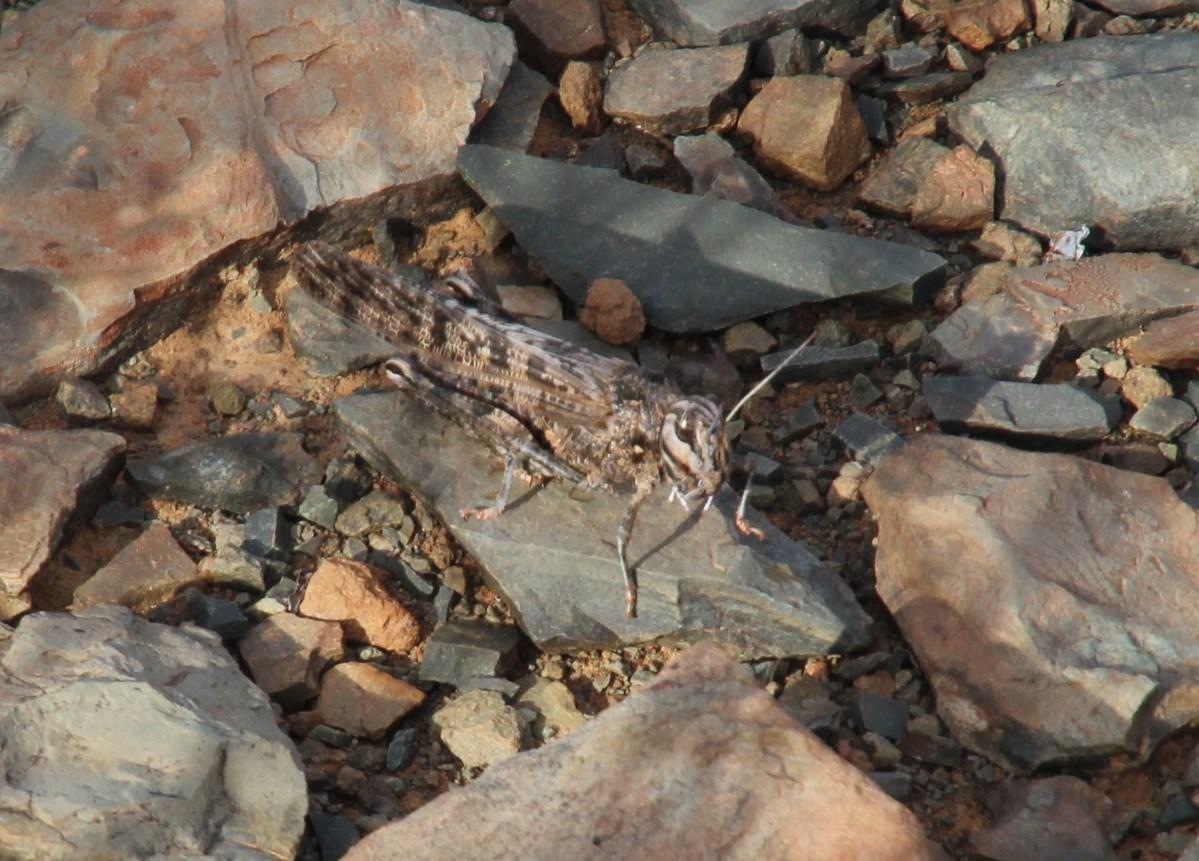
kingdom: Animalia
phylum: Arthropoda
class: Insecta
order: Orthoptera
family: Acrididae
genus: Locustana
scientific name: Locustana pardalina
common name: Brown locust
